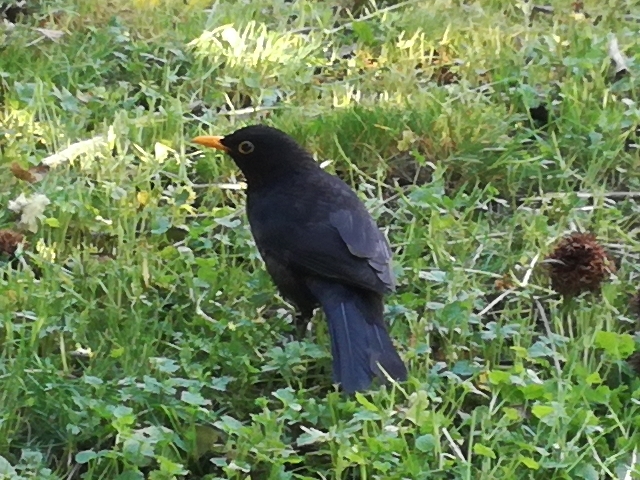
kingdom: Animalia
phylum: Chordata
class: Aves
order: Passeriformes
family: Turdidae
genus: Turdus
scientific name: Turdus merula
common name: Common blackbird
